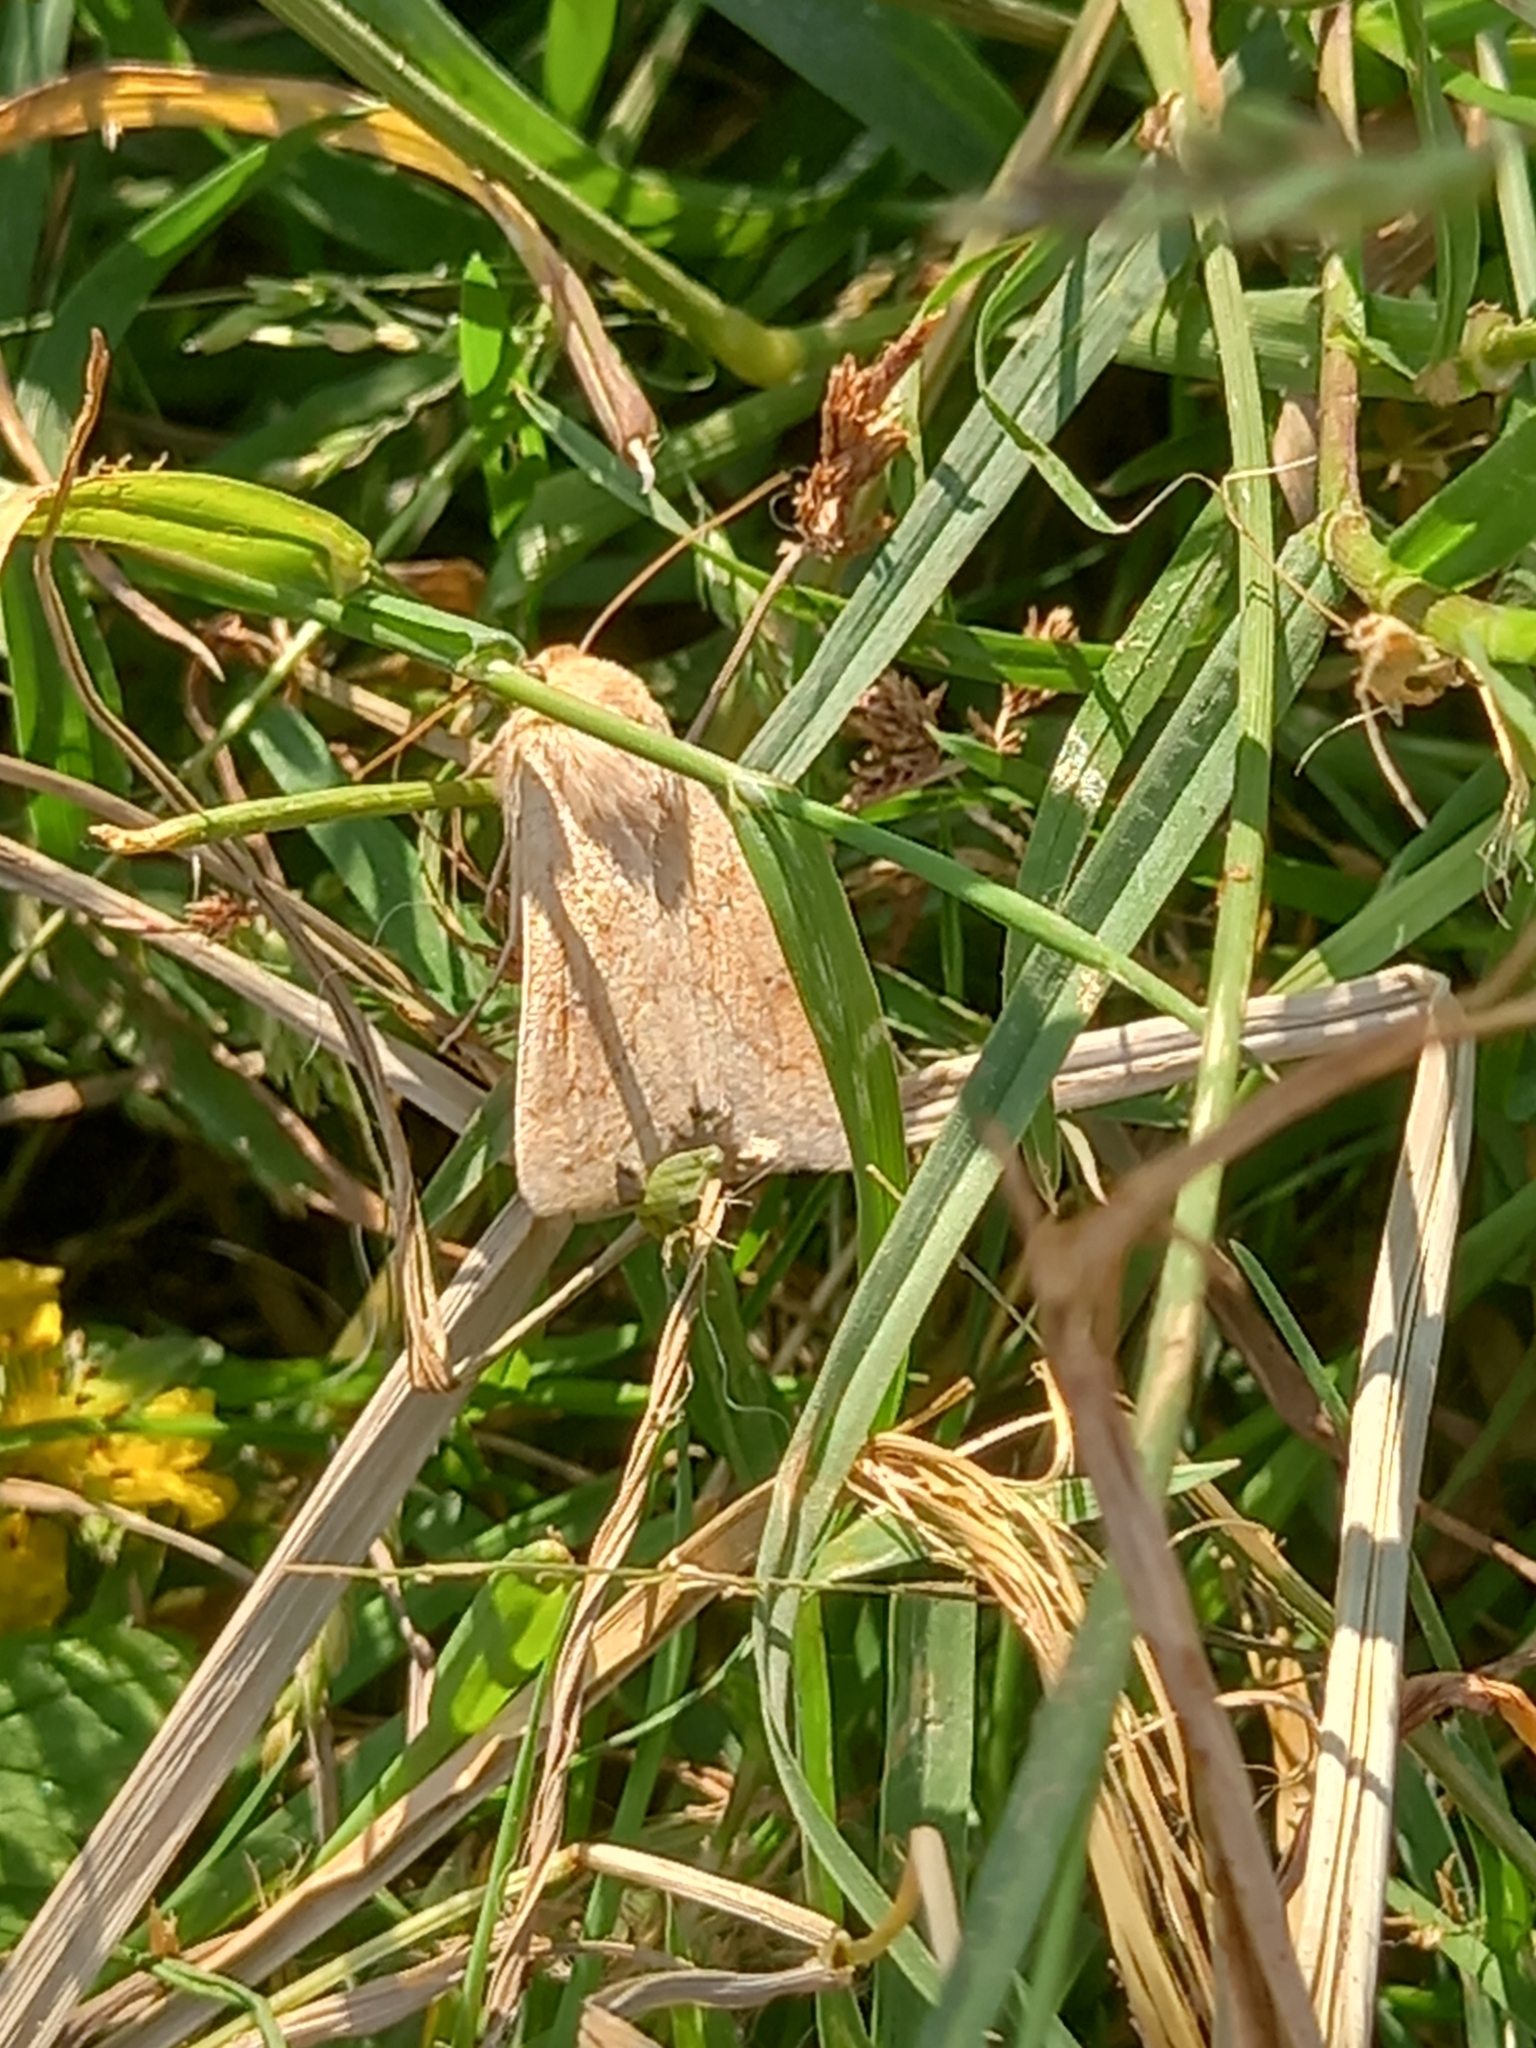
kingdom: Animalia
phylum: Arthropoda
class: Insecta
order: Lepidoptera
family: Noctuidae
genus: Mythimna
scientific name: Mythimna vitellina
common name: Delicate
